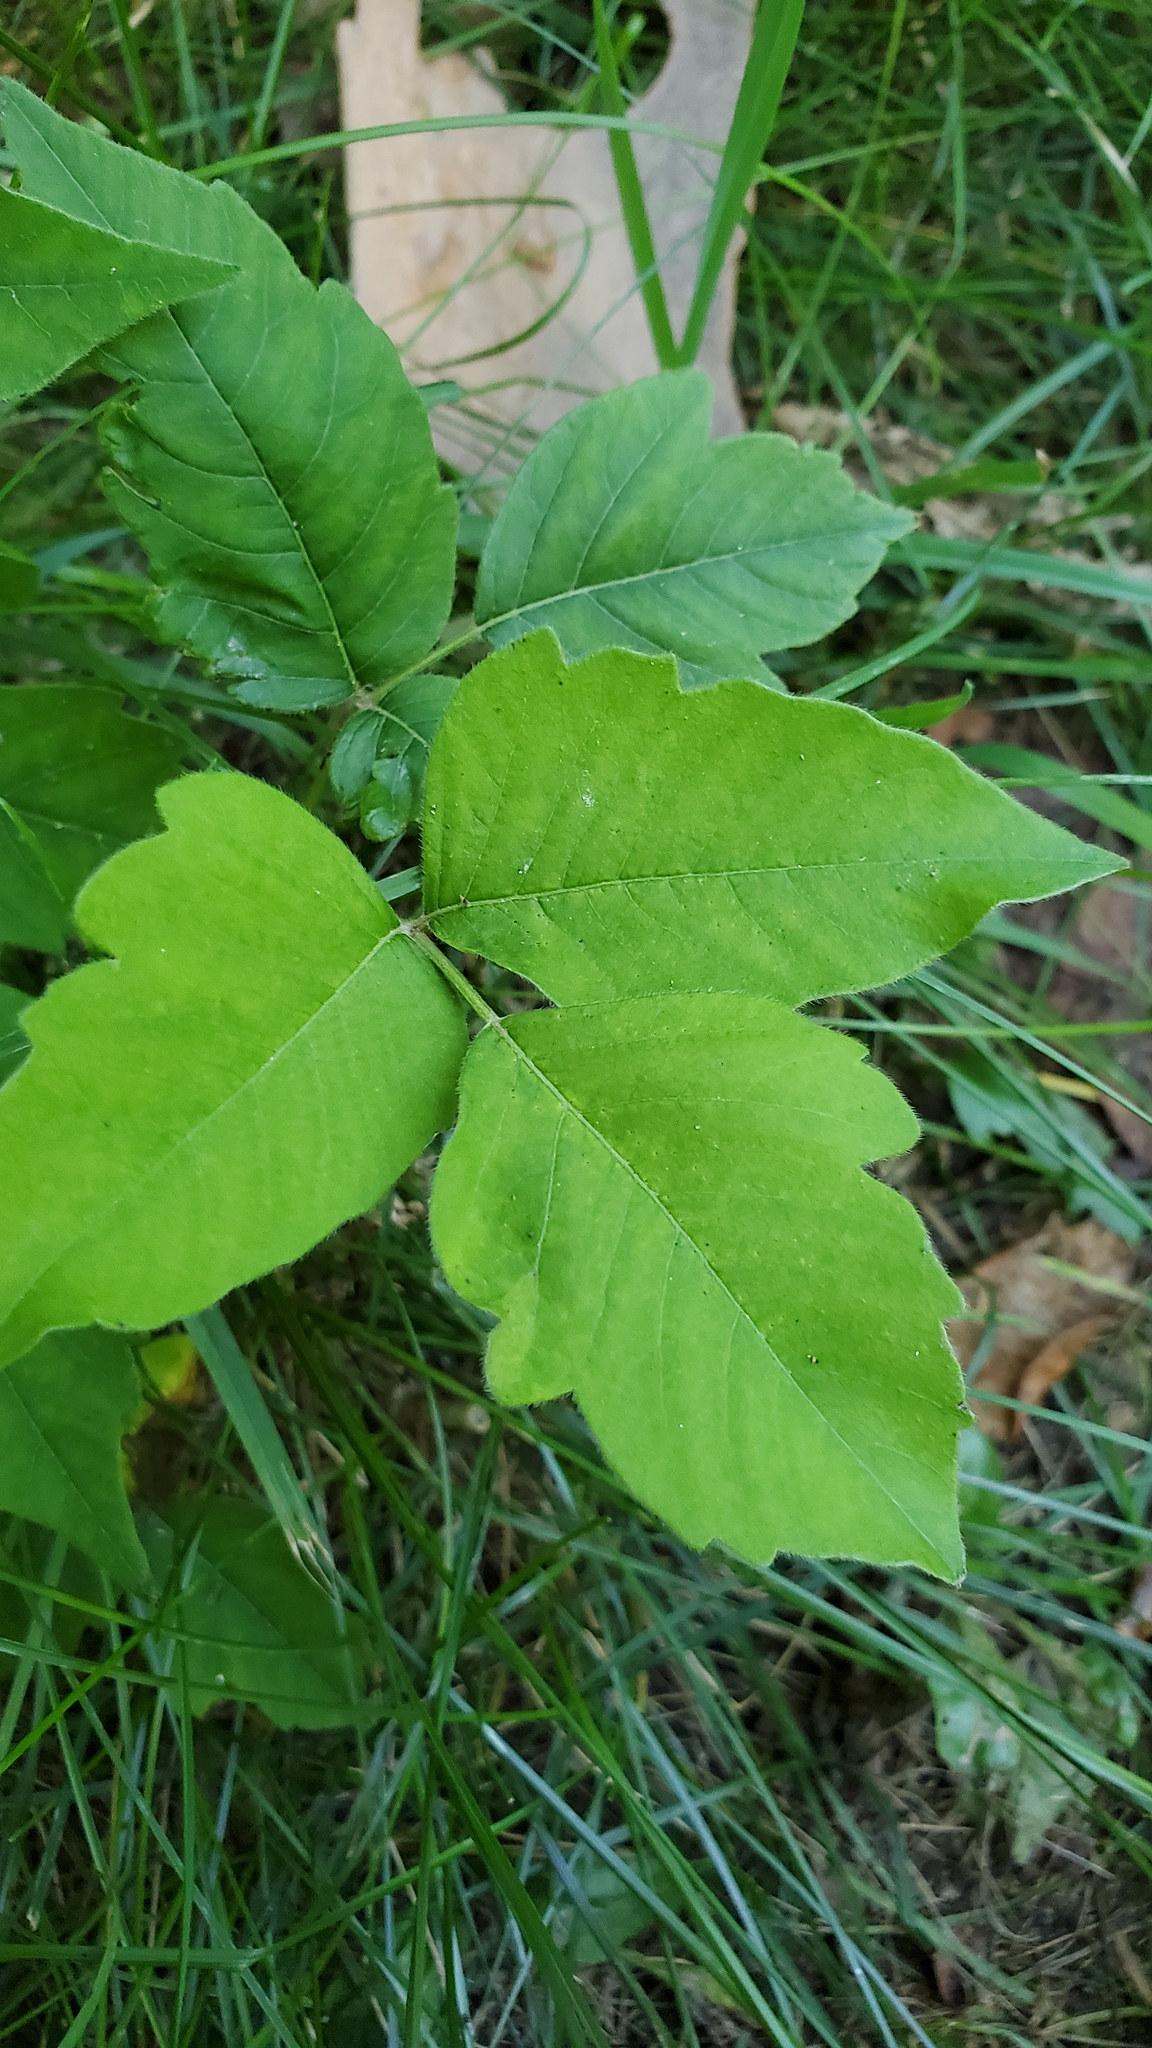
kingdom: Plantae
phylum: Tracheophyta
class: Magnoliopsida
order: Sapindales
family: Anacardiaceae
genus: Toxicodendron
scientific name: Toxicodendron radicans
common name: Poison ivy
